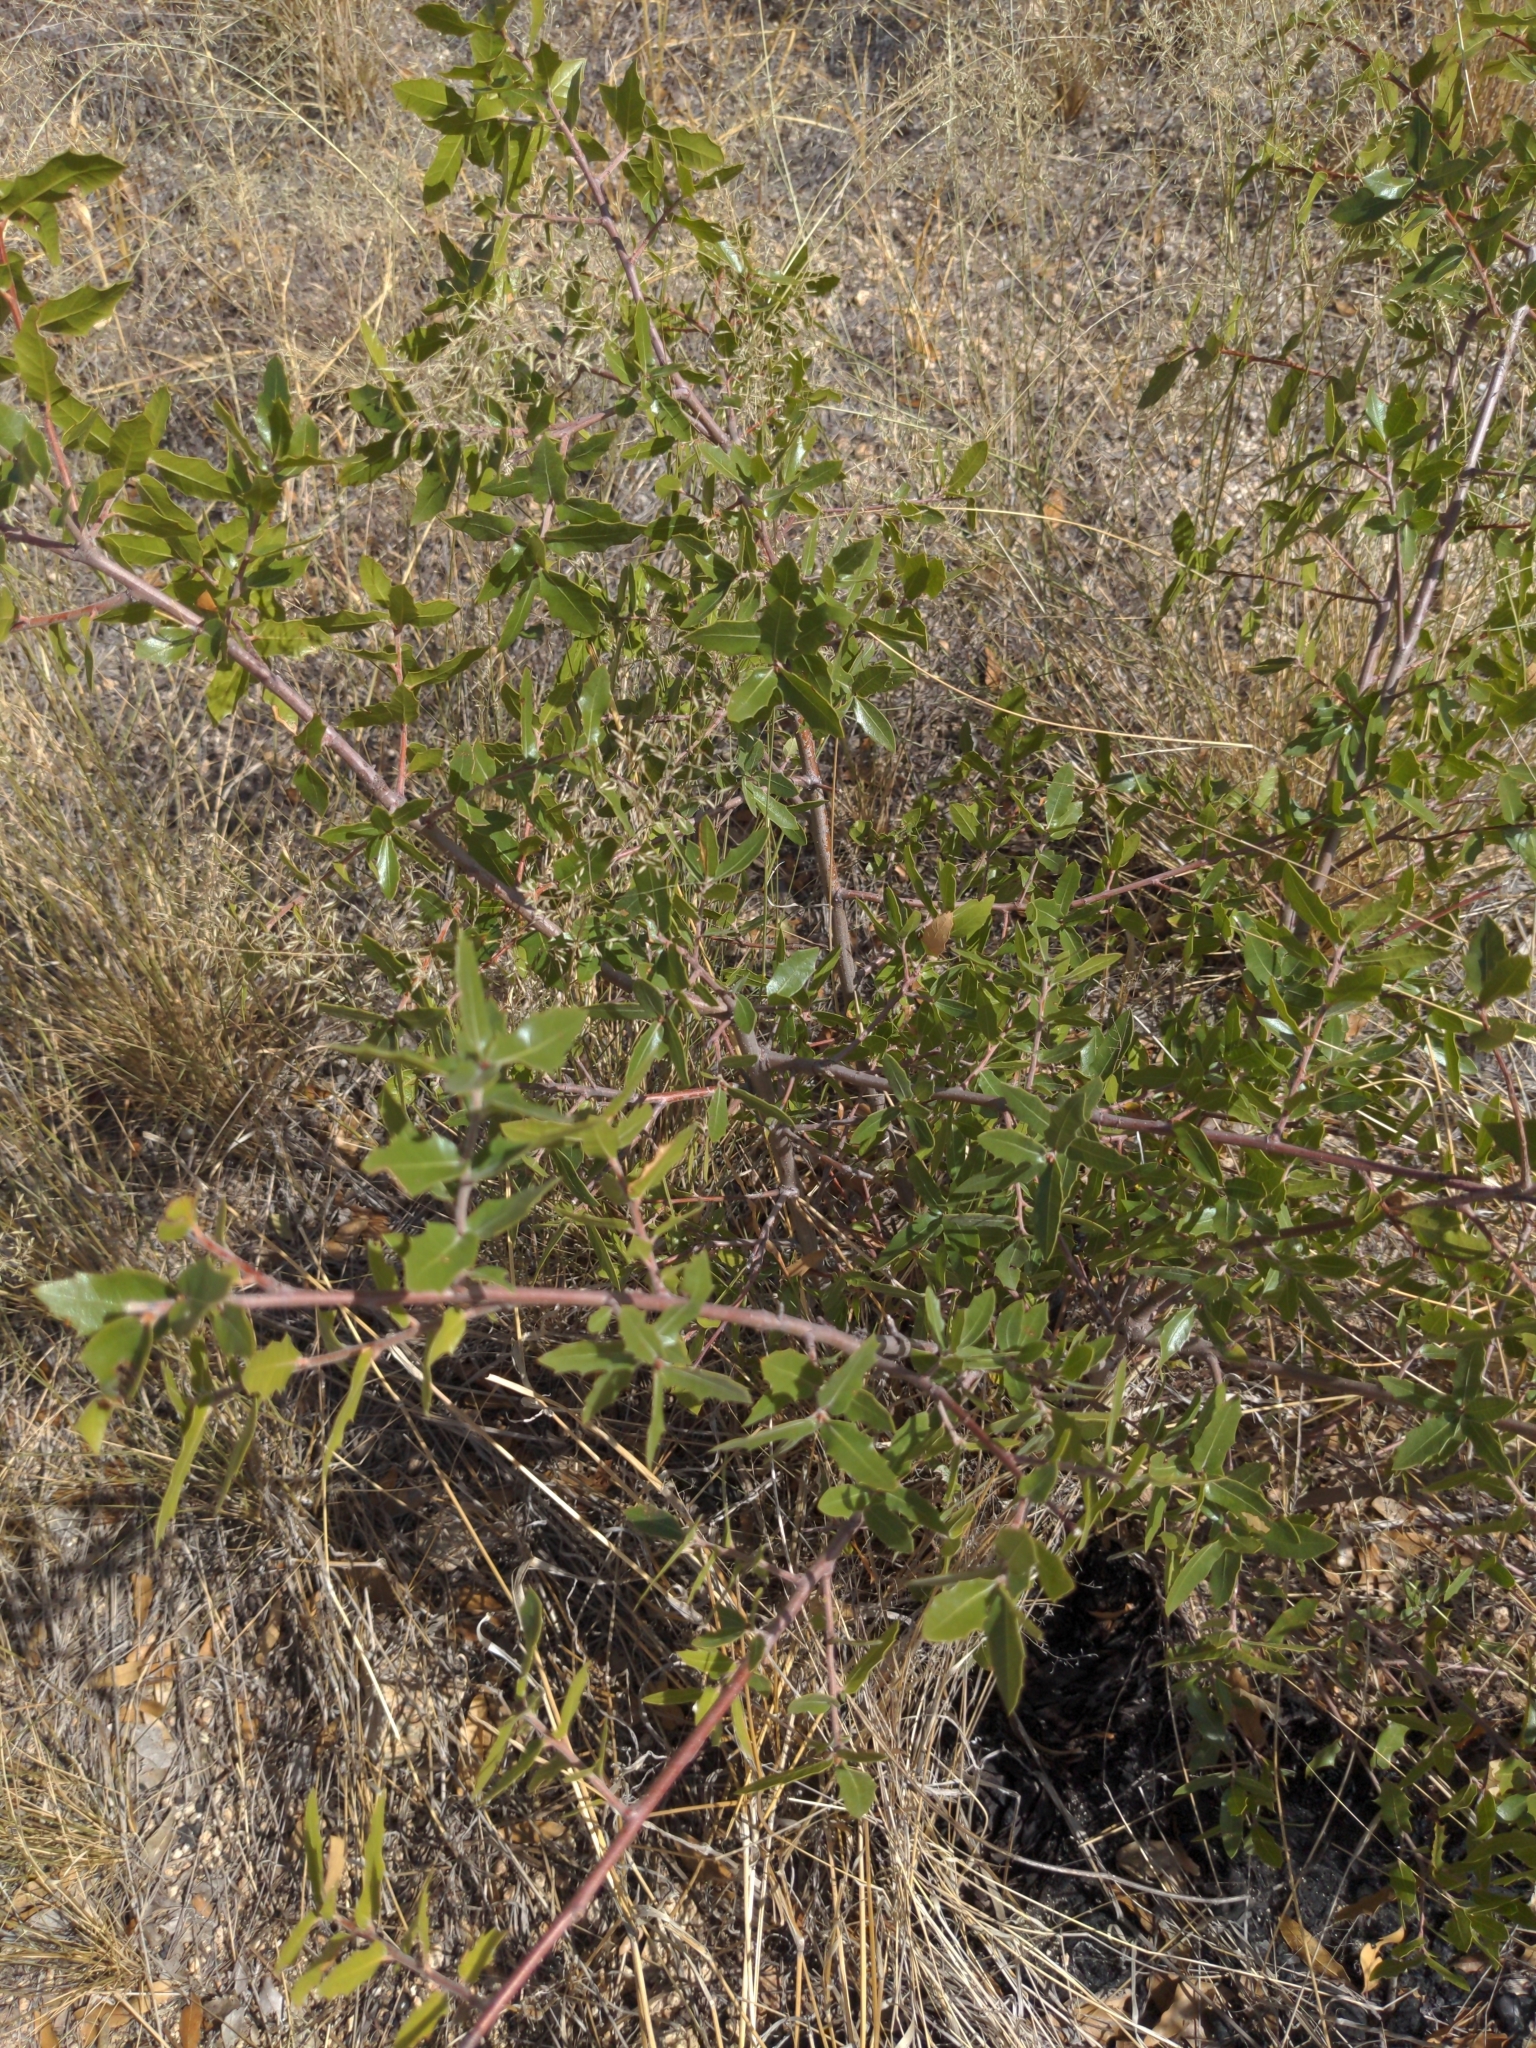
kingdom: Plantae
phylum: Tracheophyta
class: Magnoliopsida
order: Fagales
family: Fagaceae
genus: Quercus
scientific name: Quercus emoryi
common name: Emory oak
